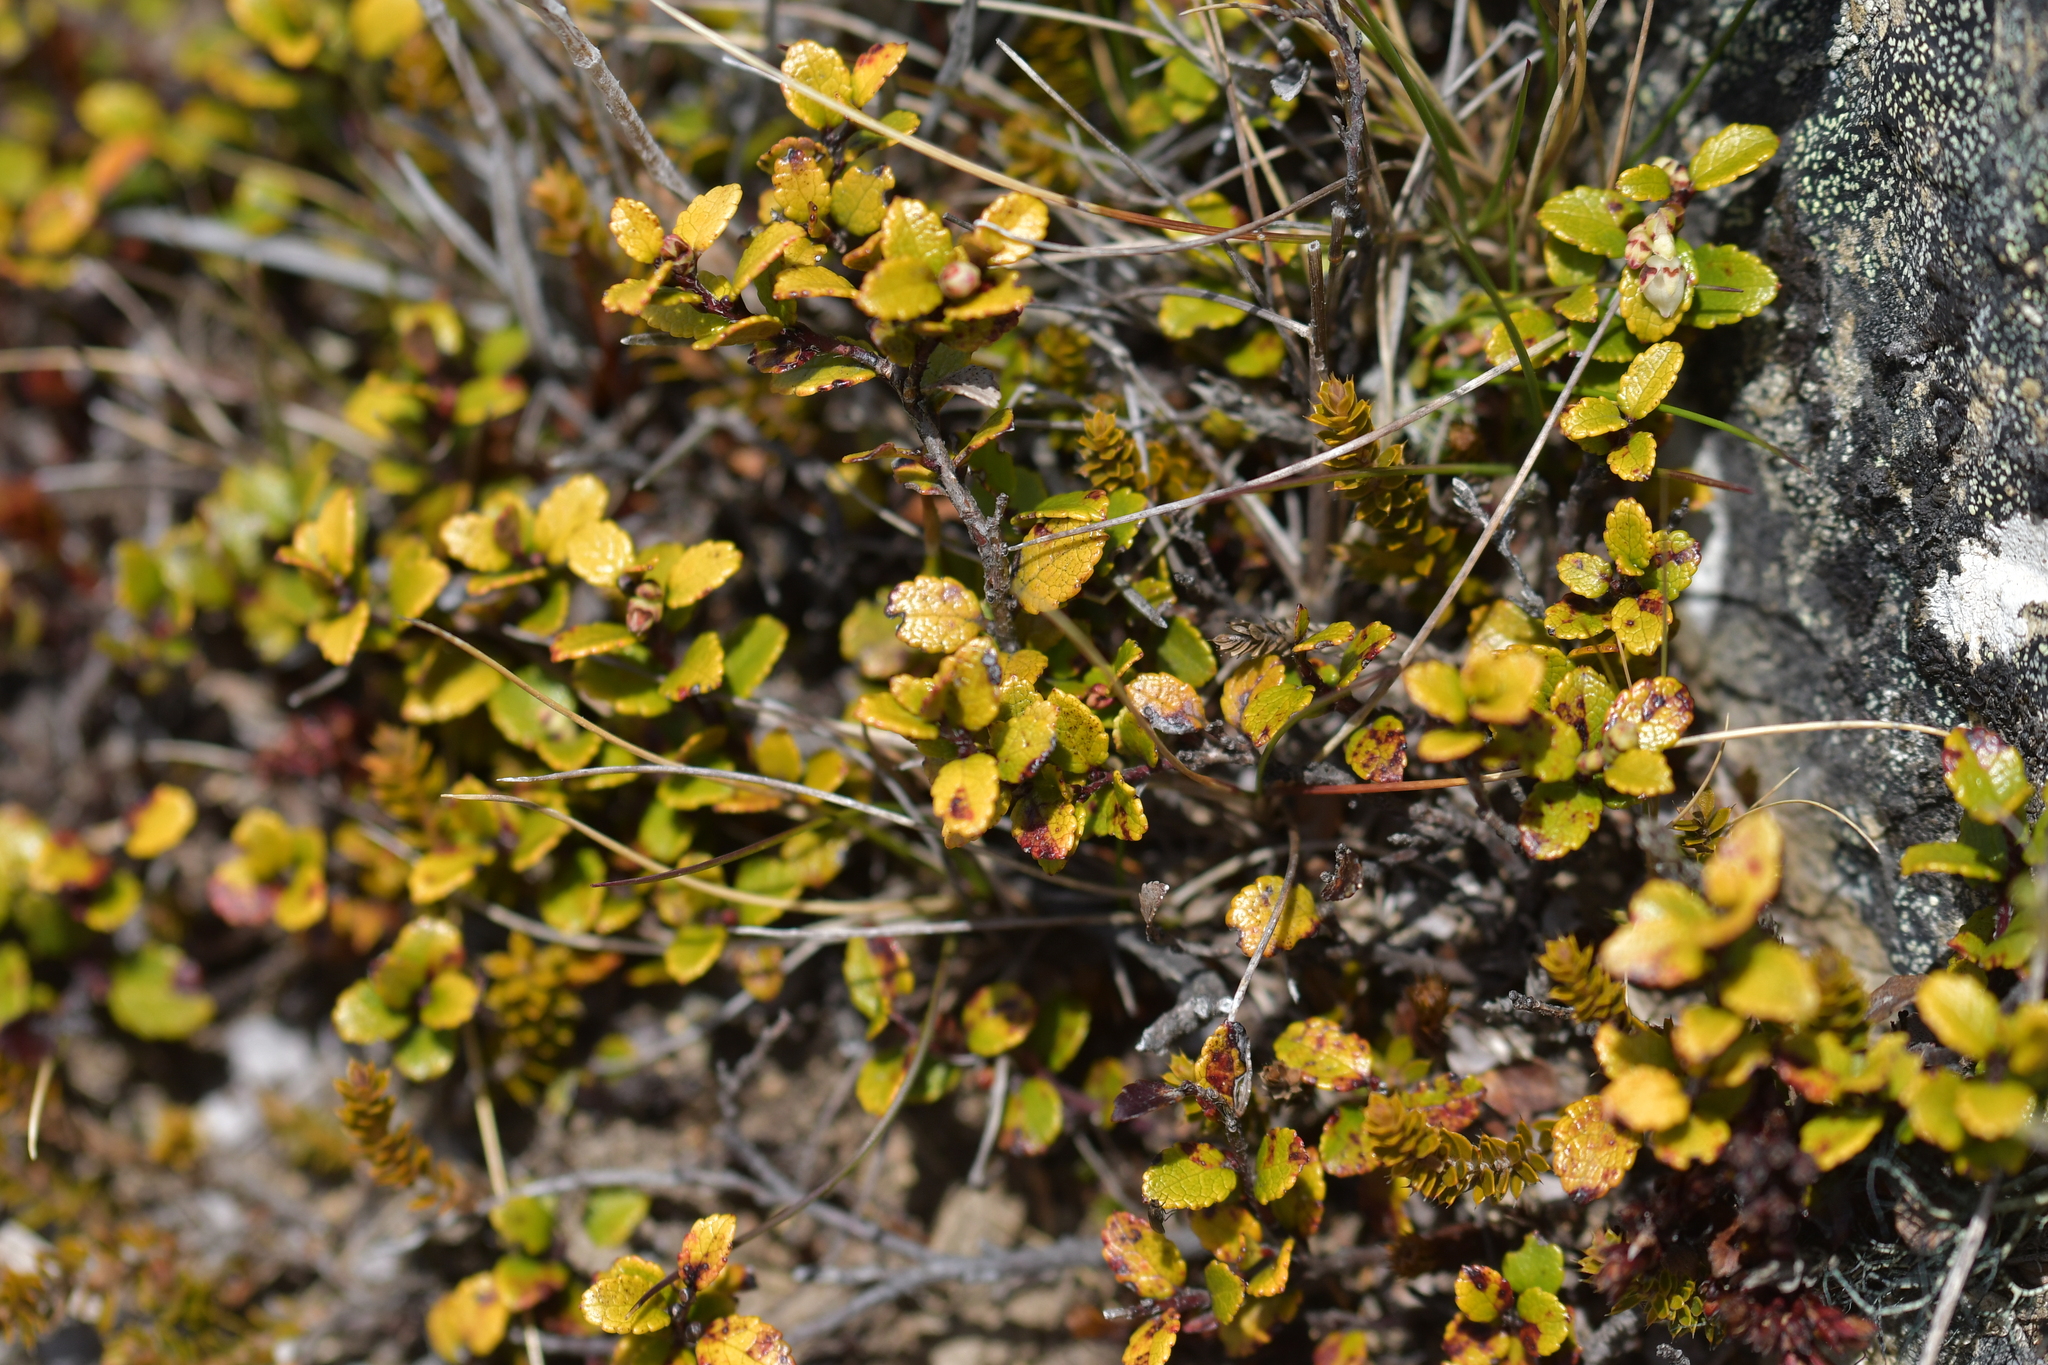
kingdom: Plantae
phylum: Tracheophyta
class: Magnoliopsida
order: Ericales
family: Ericaceae
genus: Gaultheria
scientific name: Gaultheria depressa
